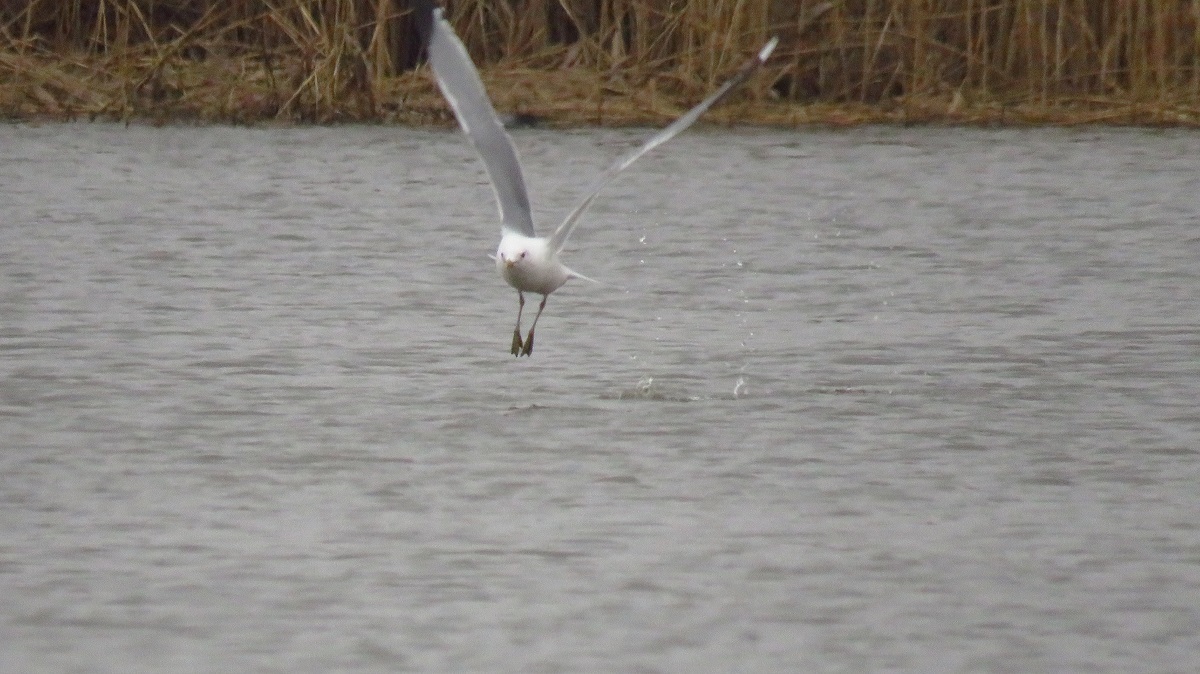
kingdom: Animalia
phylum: Chordata
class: Aves
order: Charadriiformes
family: Laridae
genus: Larus
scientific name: Larus canus
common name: Mew gull
